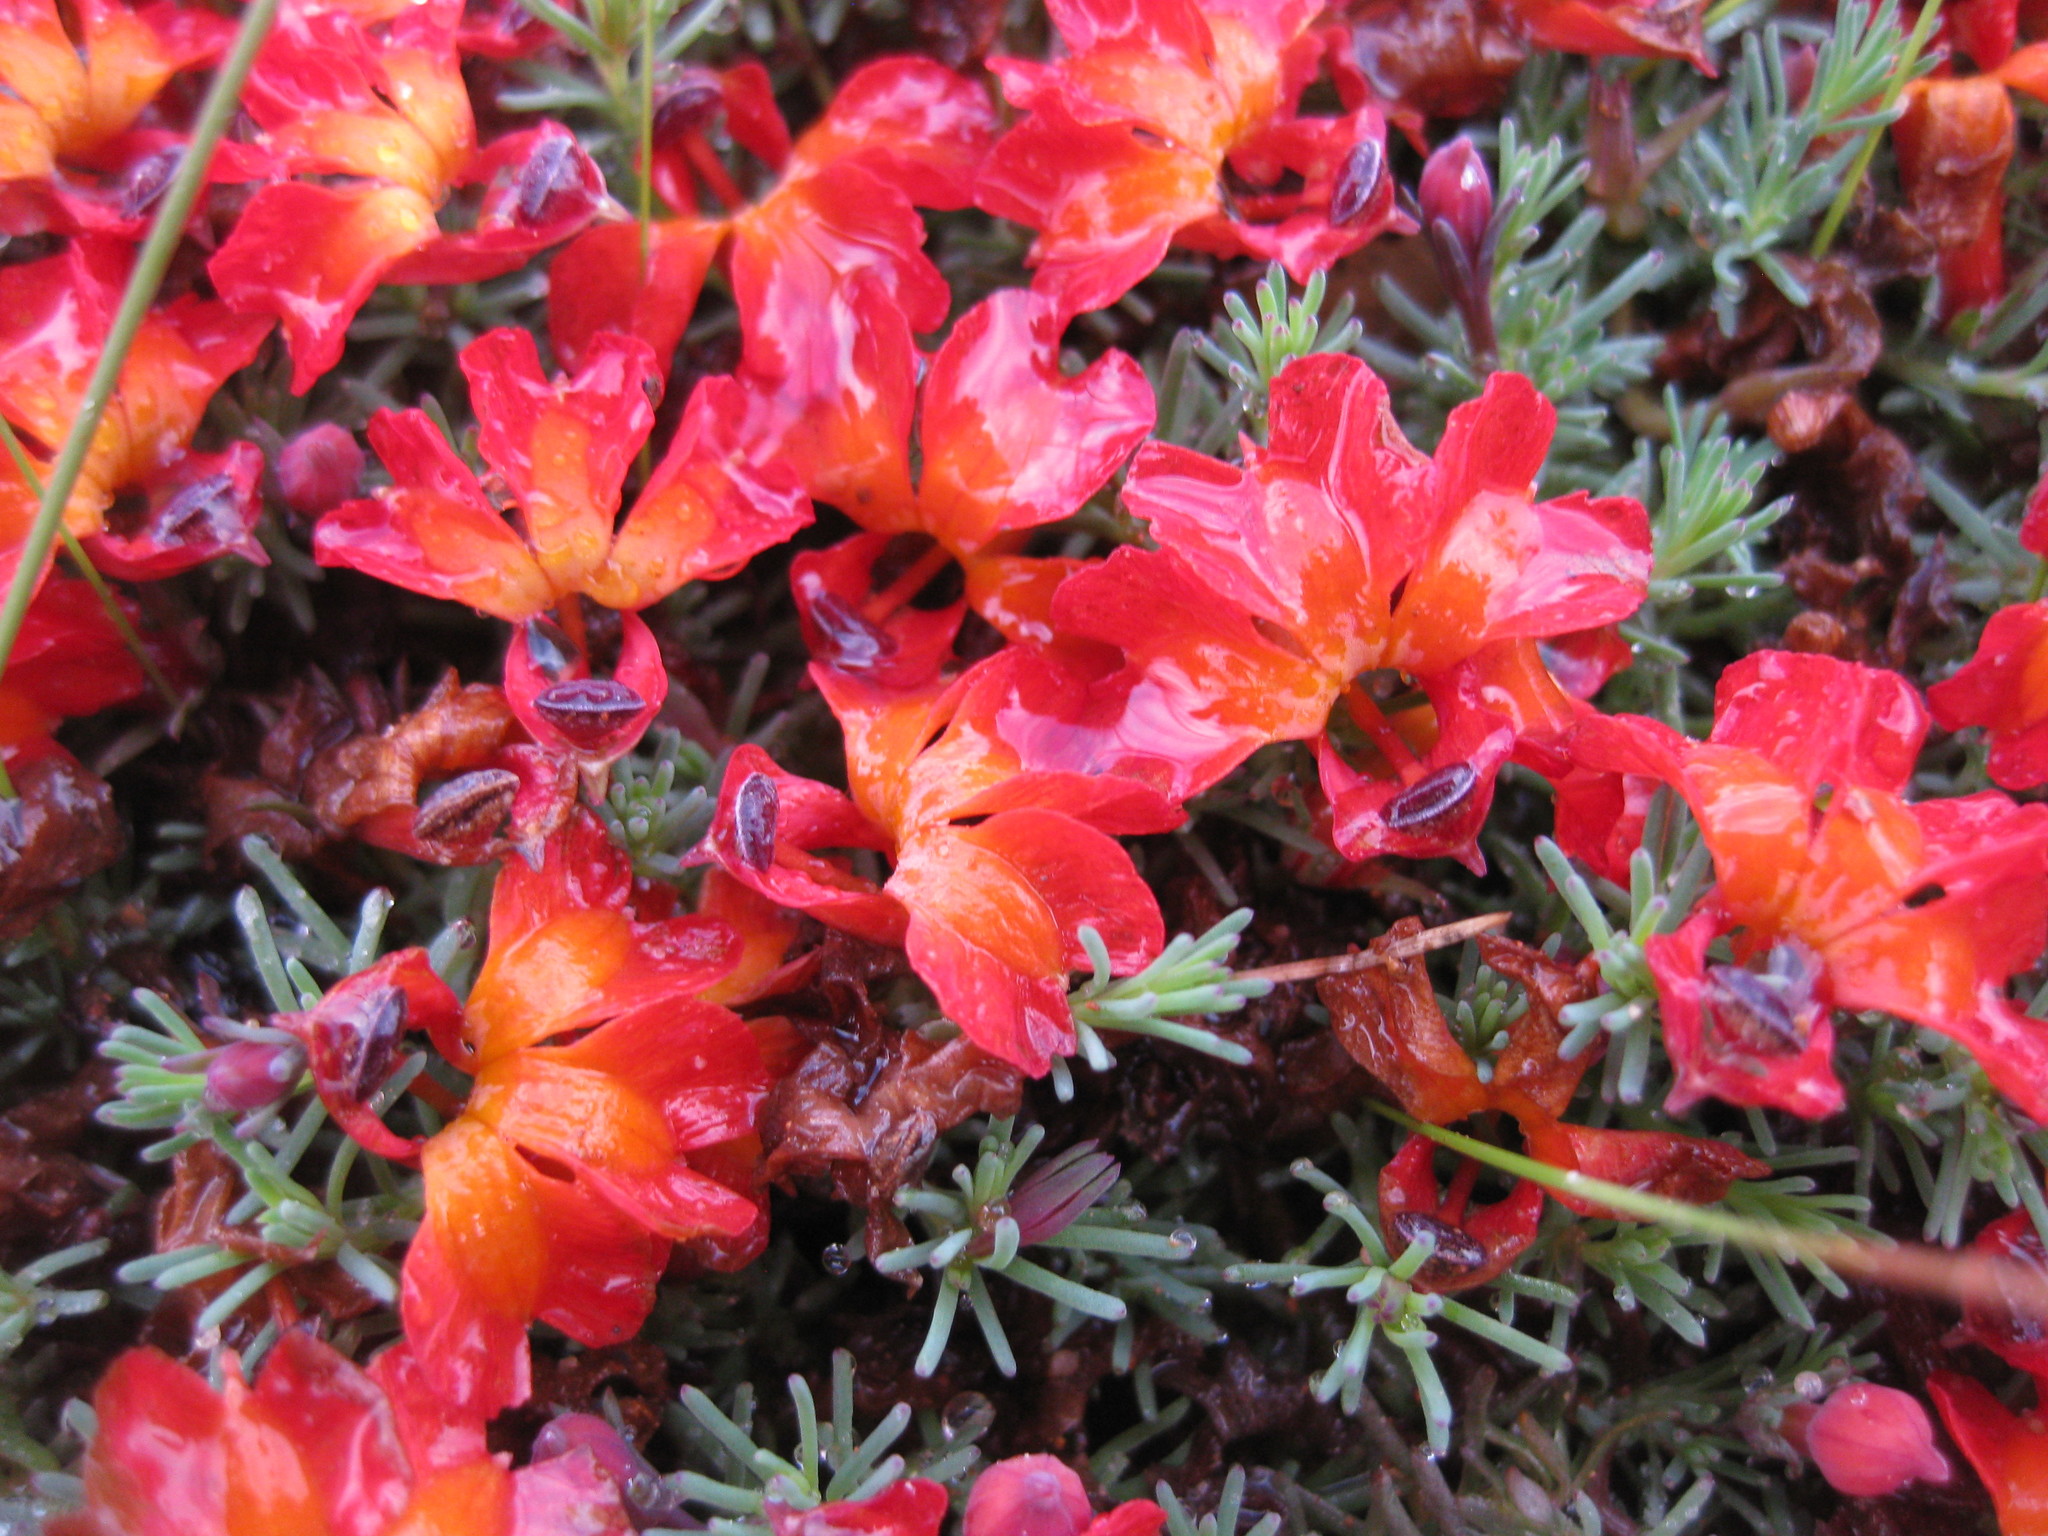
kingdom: Plantae
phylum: Tracheophyta
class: Magnoliopsida
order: Asterales
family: Goodeniaceae
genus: Lechenaultia
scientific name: Lechenaultia formosa
